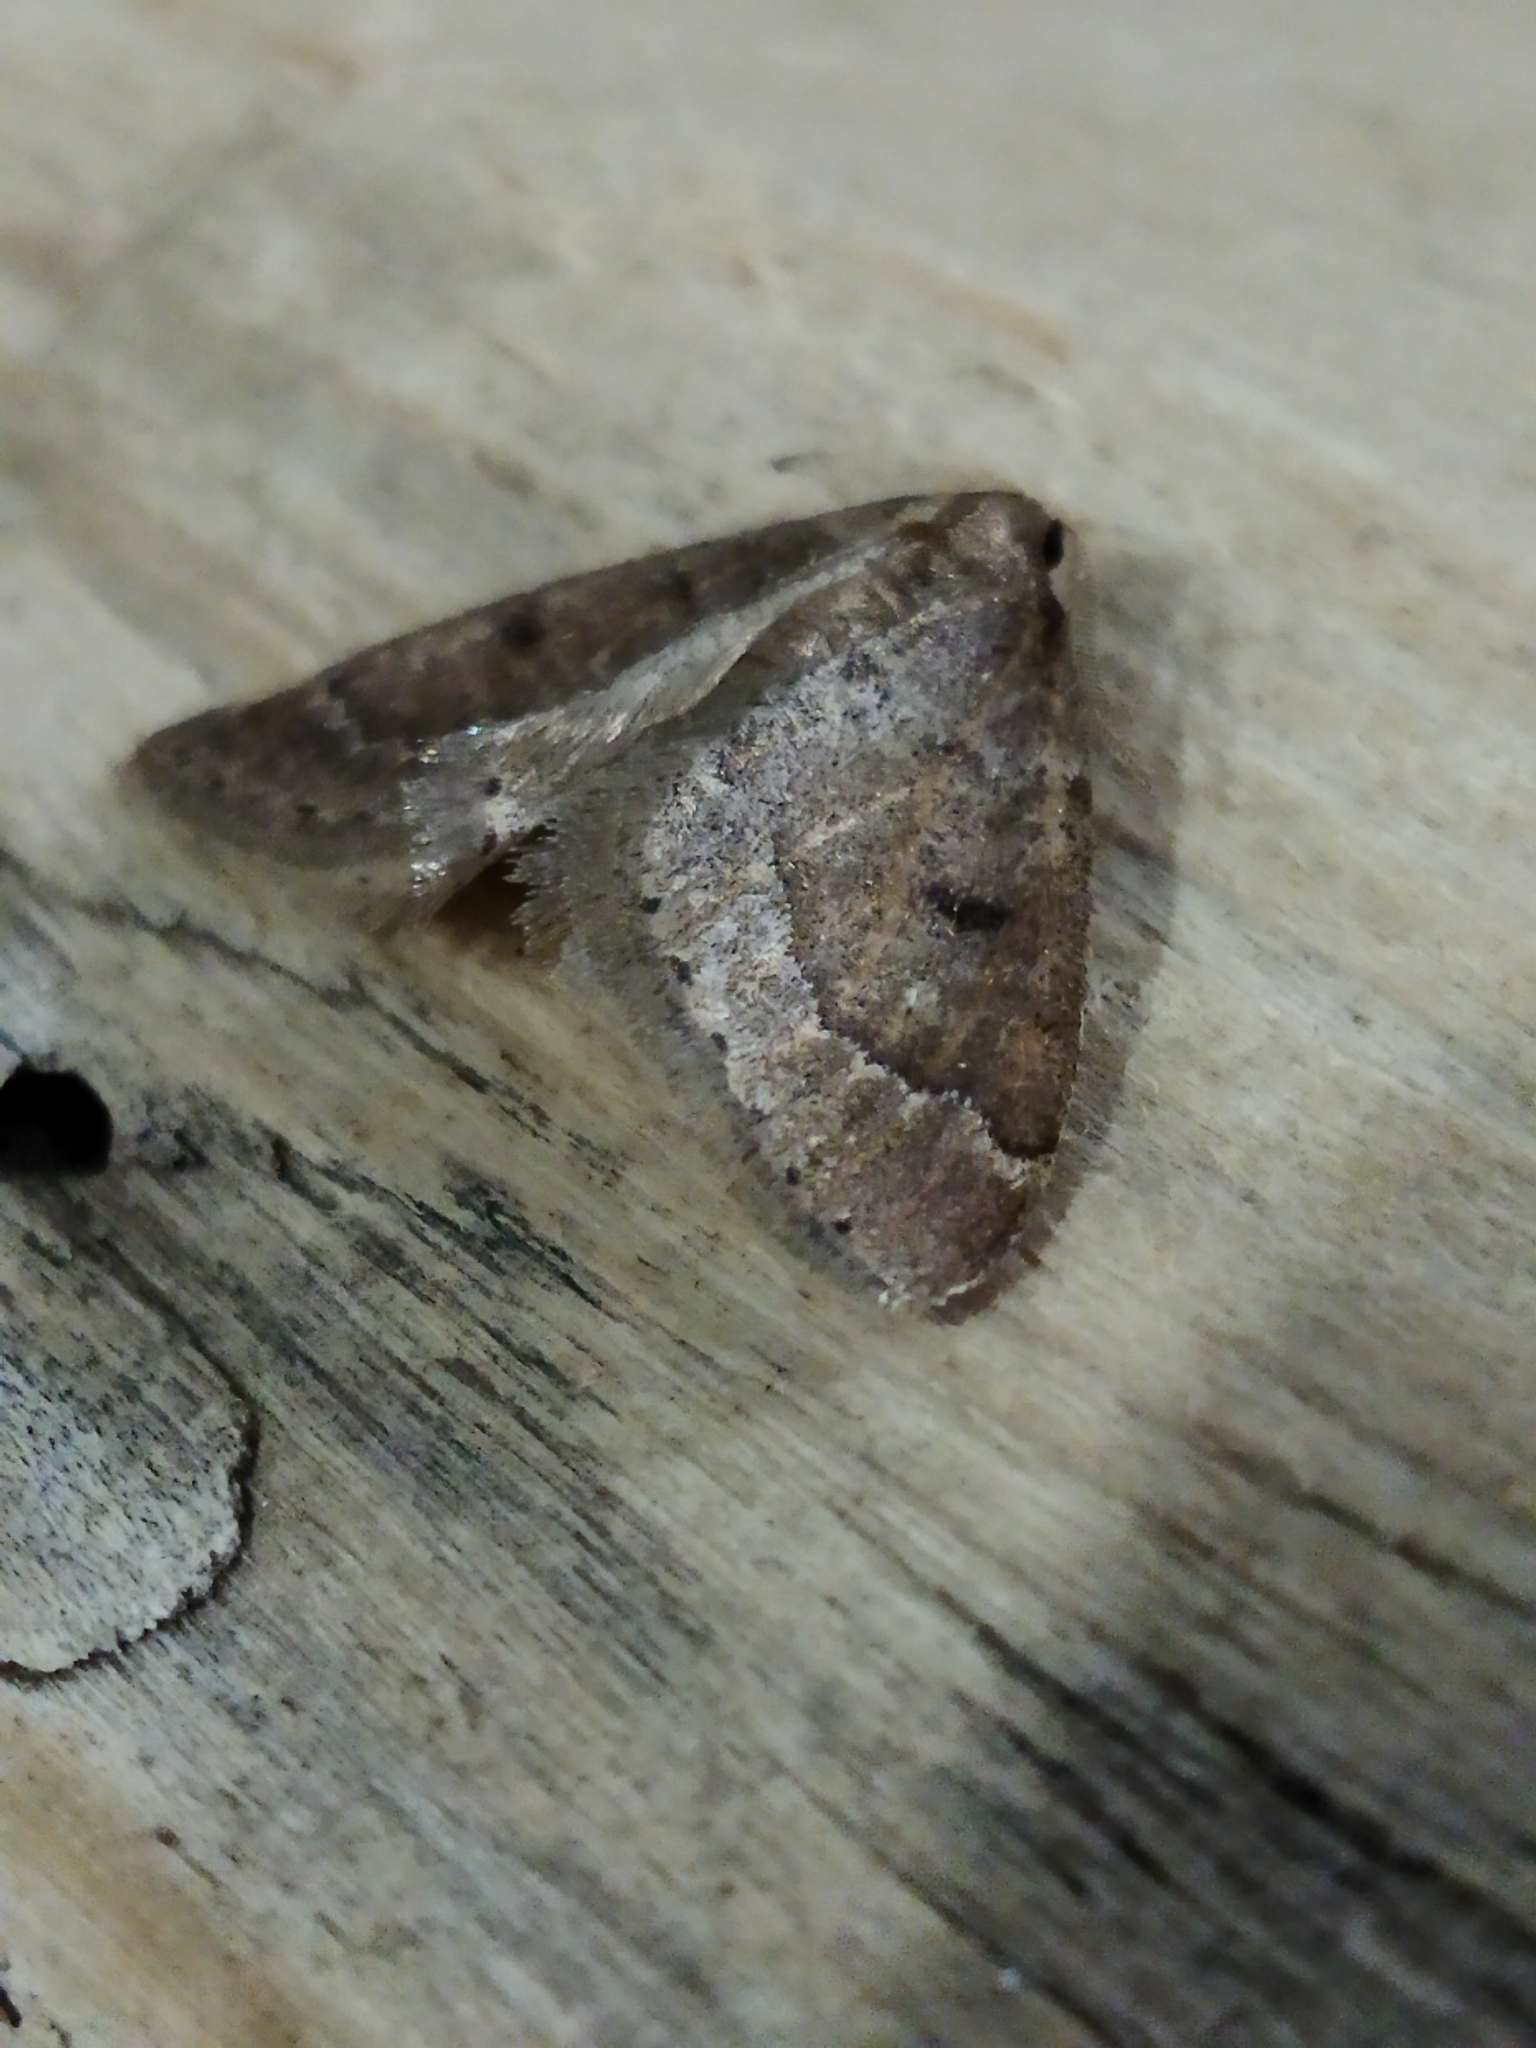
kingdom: Animalia
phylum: Arthropoda
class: Insecta
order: Lepidoptera
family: Geometridae
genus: Theria
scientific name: Theria rupicapraria
